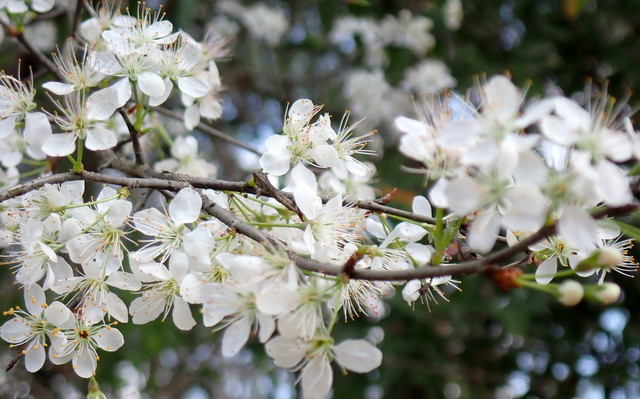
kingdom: Plantae
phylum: Tracheophyta
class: Magnoliopsida
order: Rosales
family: Rosaceae
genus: Prunus
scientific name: Prunus angustifolia
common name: Cherokee plum
